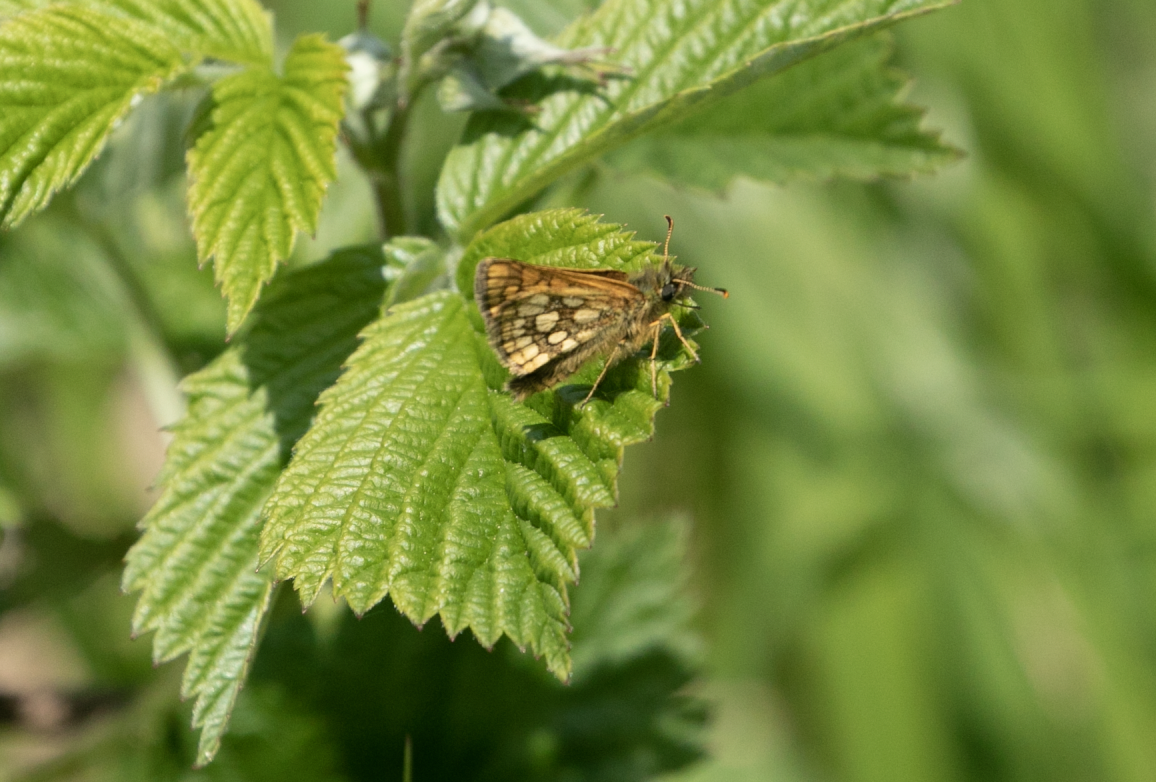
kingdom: Animalia
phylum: Arthropoda
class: Insecta
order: Lepidoptera
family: Hesperiidae
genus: Carterocephalus
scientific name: Carterocephalus palaemon
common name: Chequered skipper
